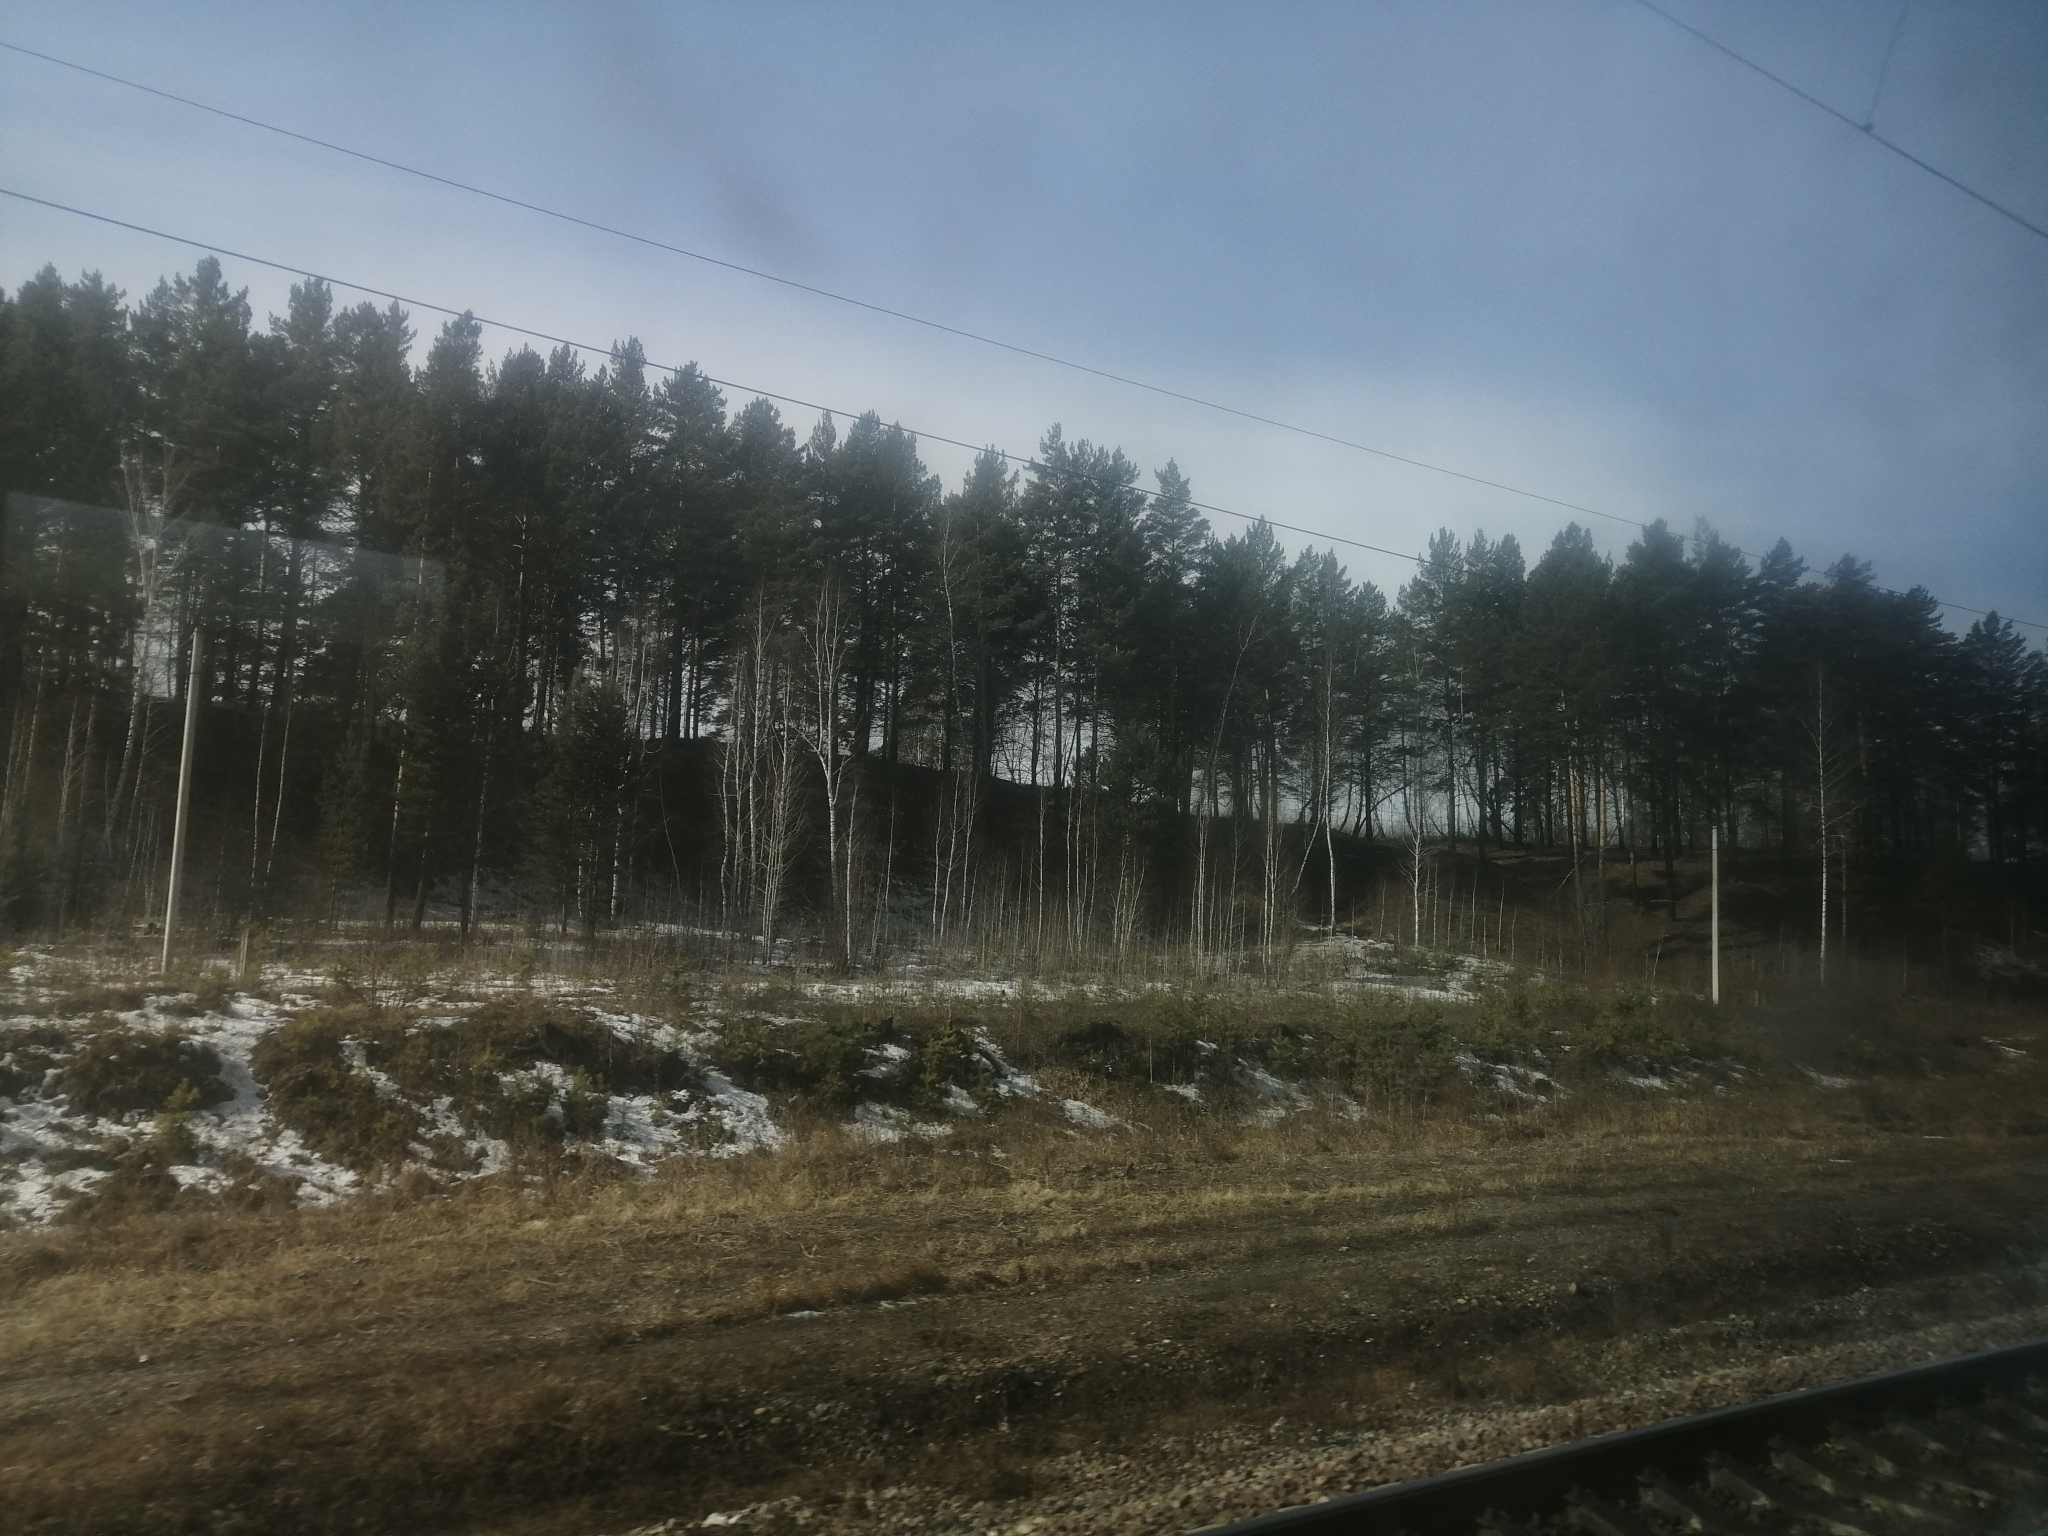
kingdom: Plantae
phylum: Tracheophyta
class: Pinopsida
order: Pinales
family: Pinaceae
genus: Pinus
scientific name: Pinus sylvestris
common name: Scots pine
